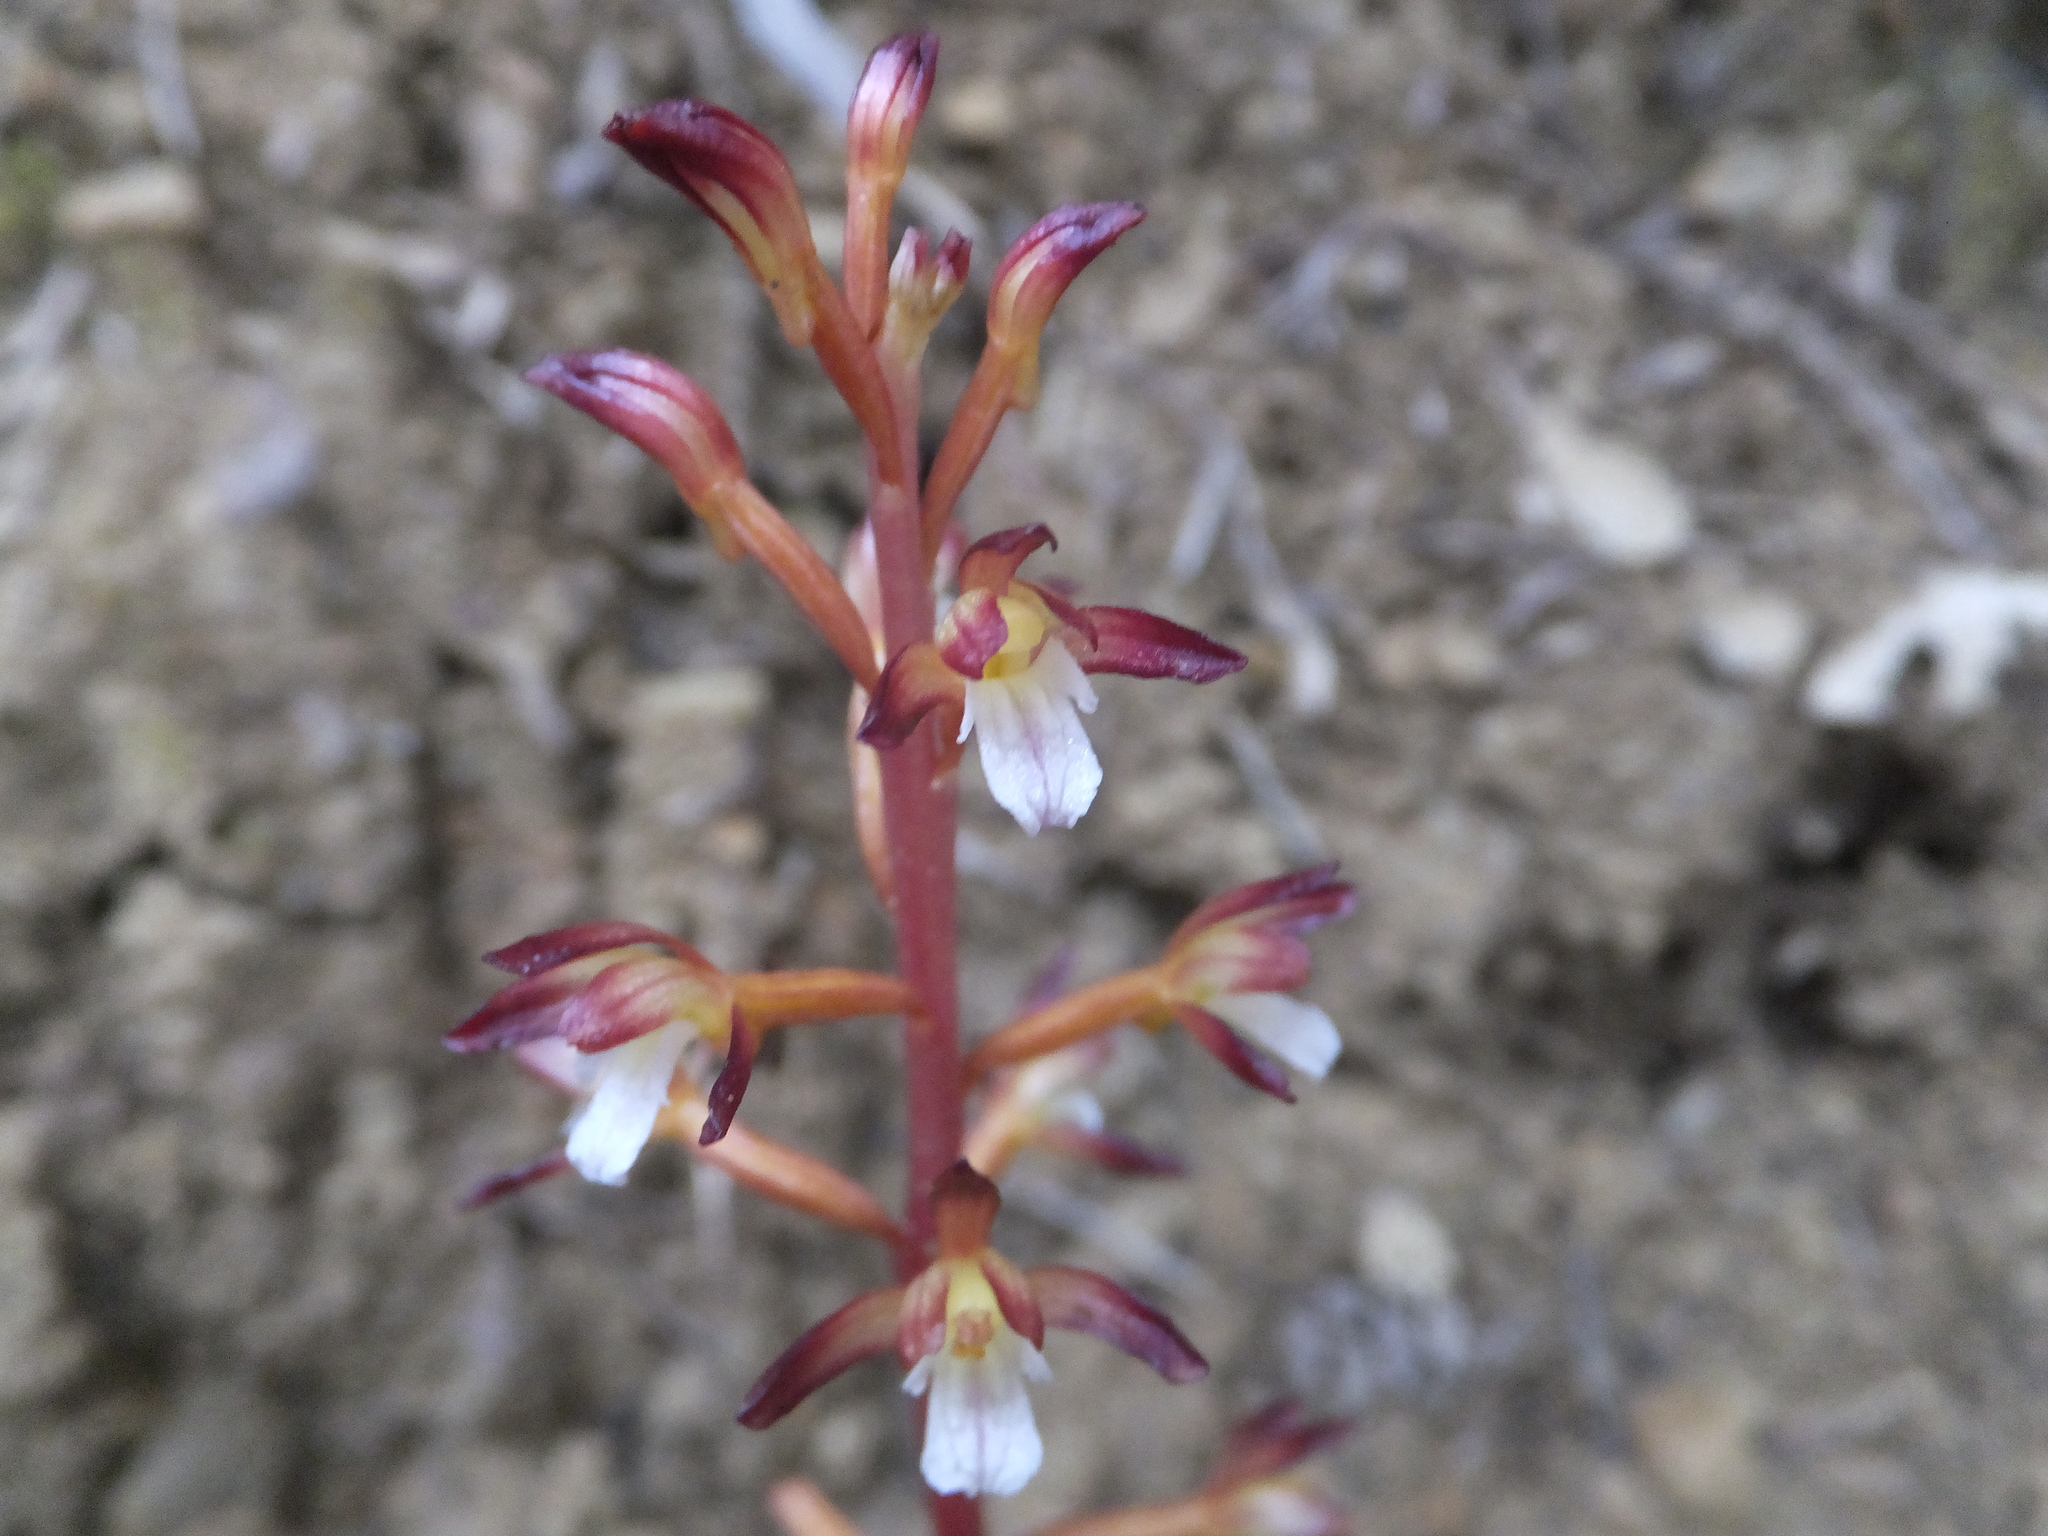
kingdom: Plantae
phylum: Tracheophyta
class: Liliopsida
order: Asparagales
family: Orchidaceae
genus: Corallorhiza
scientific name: Corallorhiza maculata
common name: Spotted coralroot
